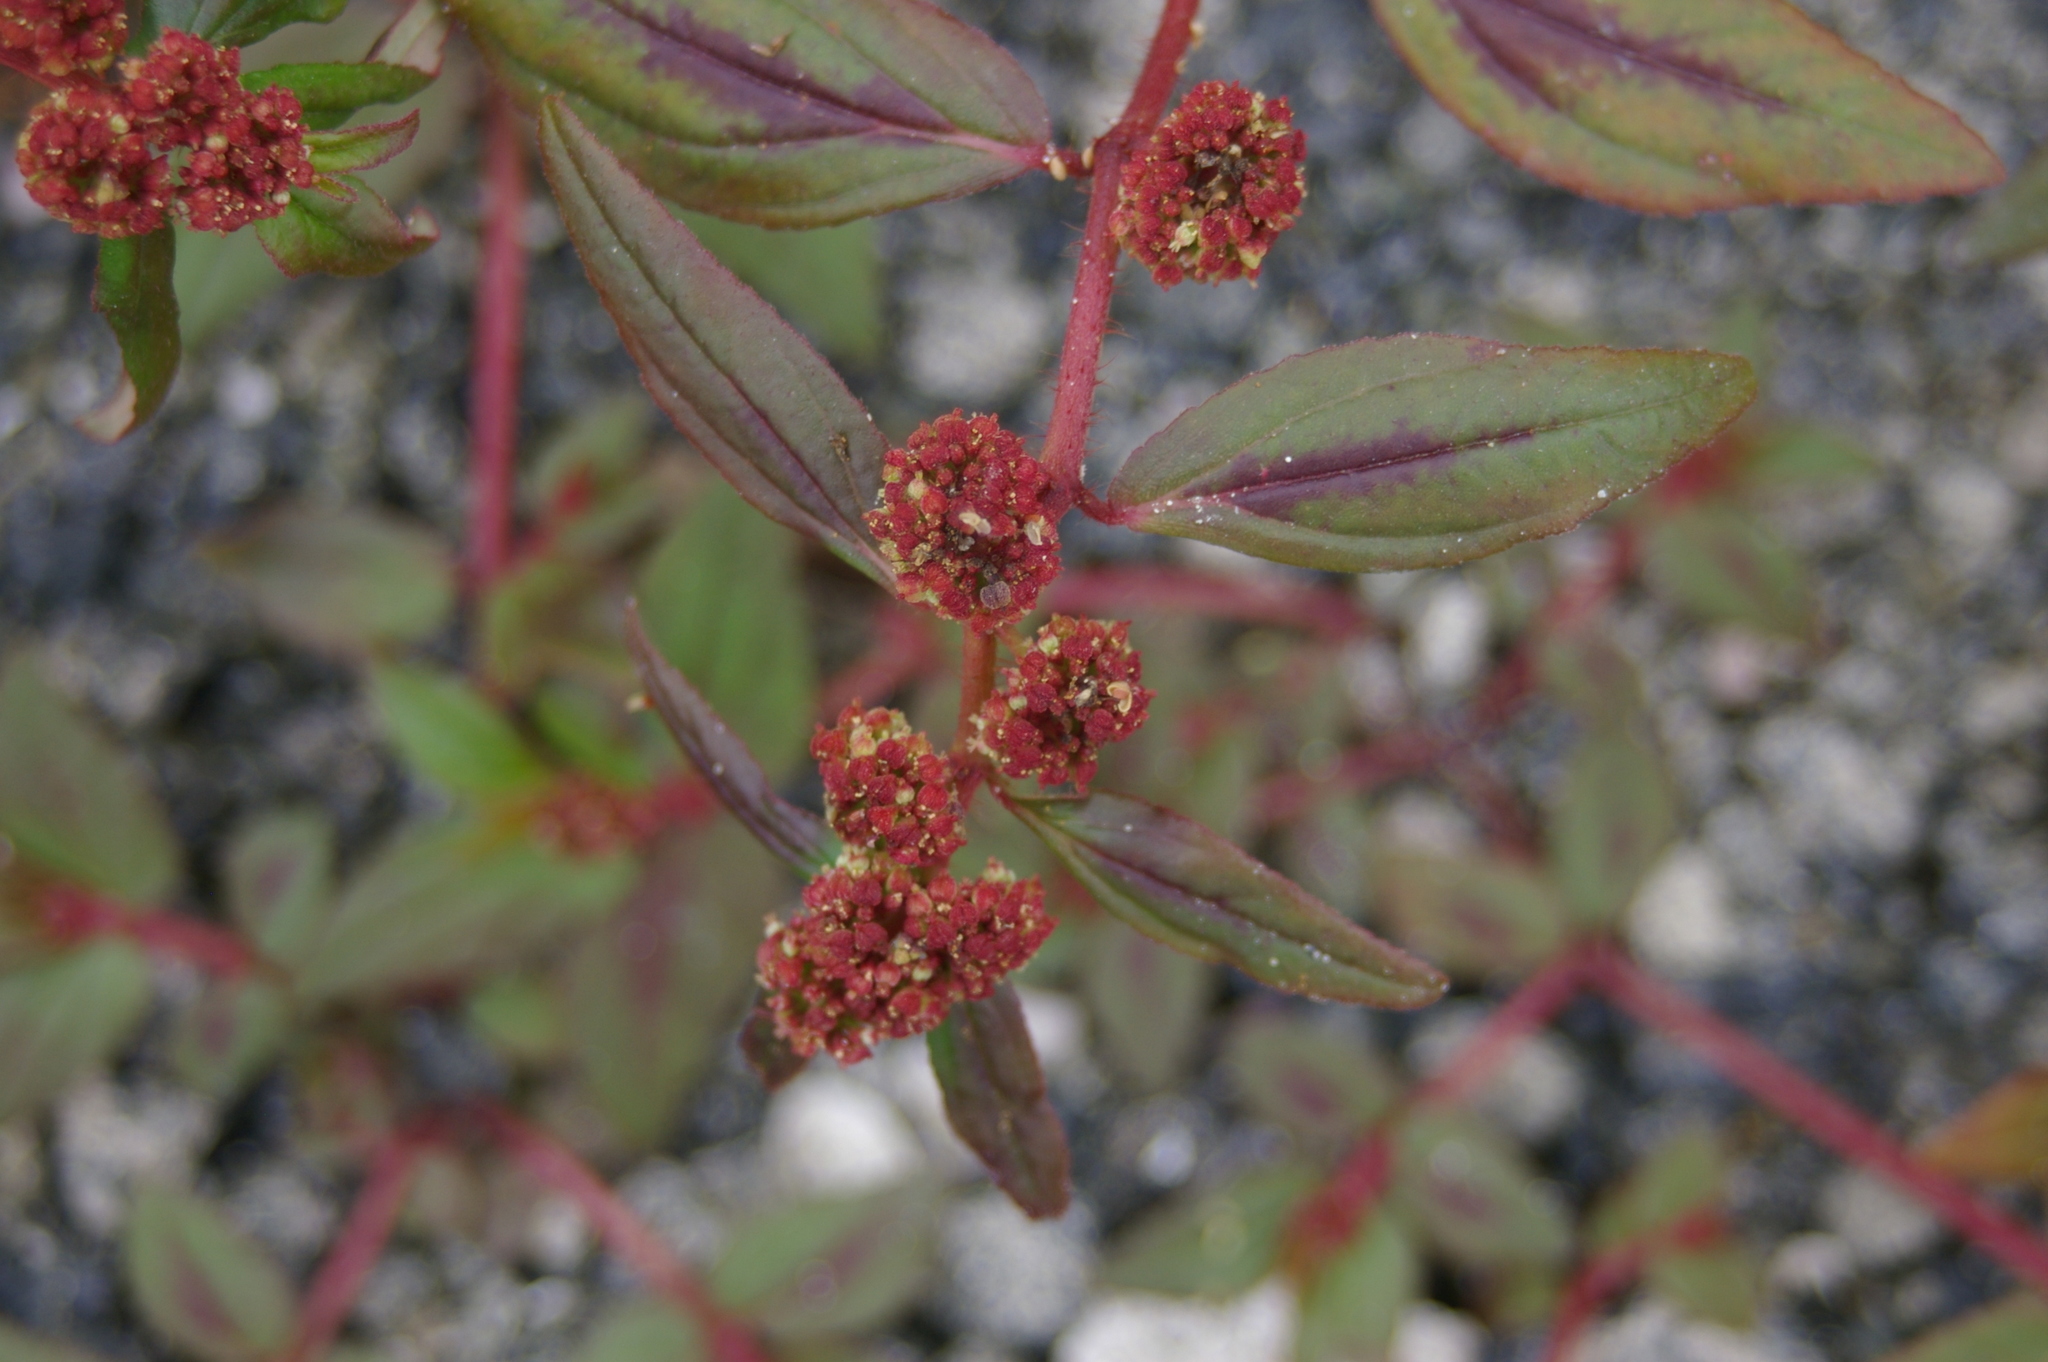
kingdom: Plantae
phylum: Tracheophyta
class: Magnoliopsida
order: Malpighiales
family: Euphorbiaceae
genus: Euphorbia
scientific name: Euphorbia hirta
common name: Pillpod sandmat
